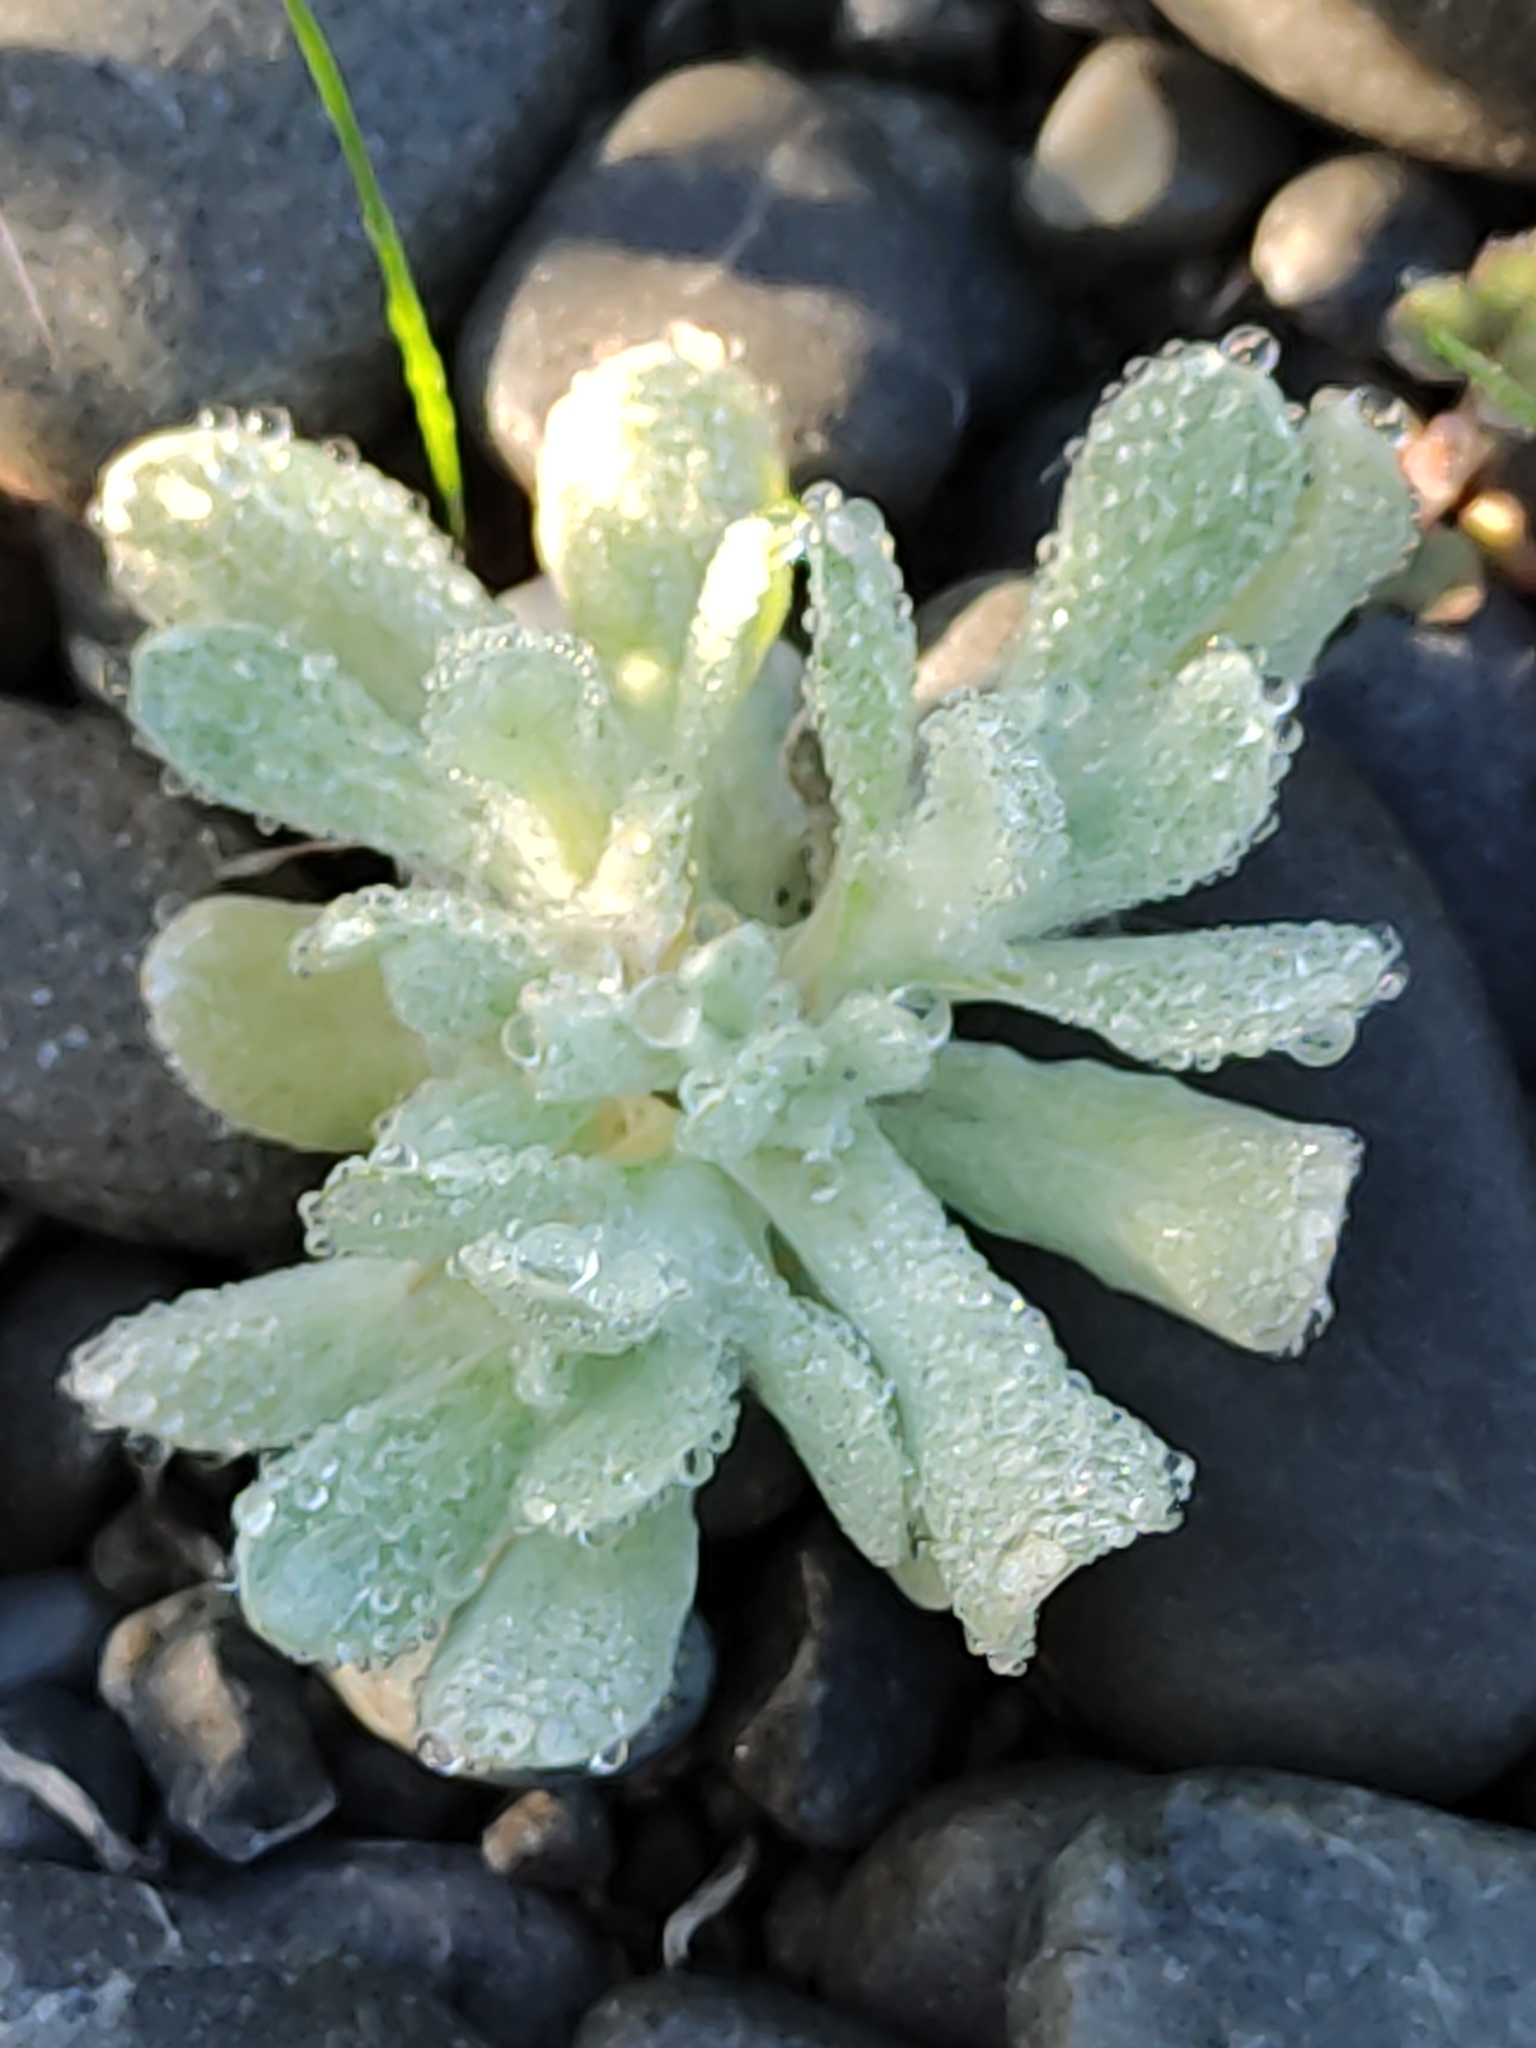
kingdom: Plantae
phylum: Tracheophyta
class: Magnoliopsida
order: Asterales
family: Asteraceae
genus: Helichrysum
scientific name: Helichrysum luteoalbum
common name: Daisy
